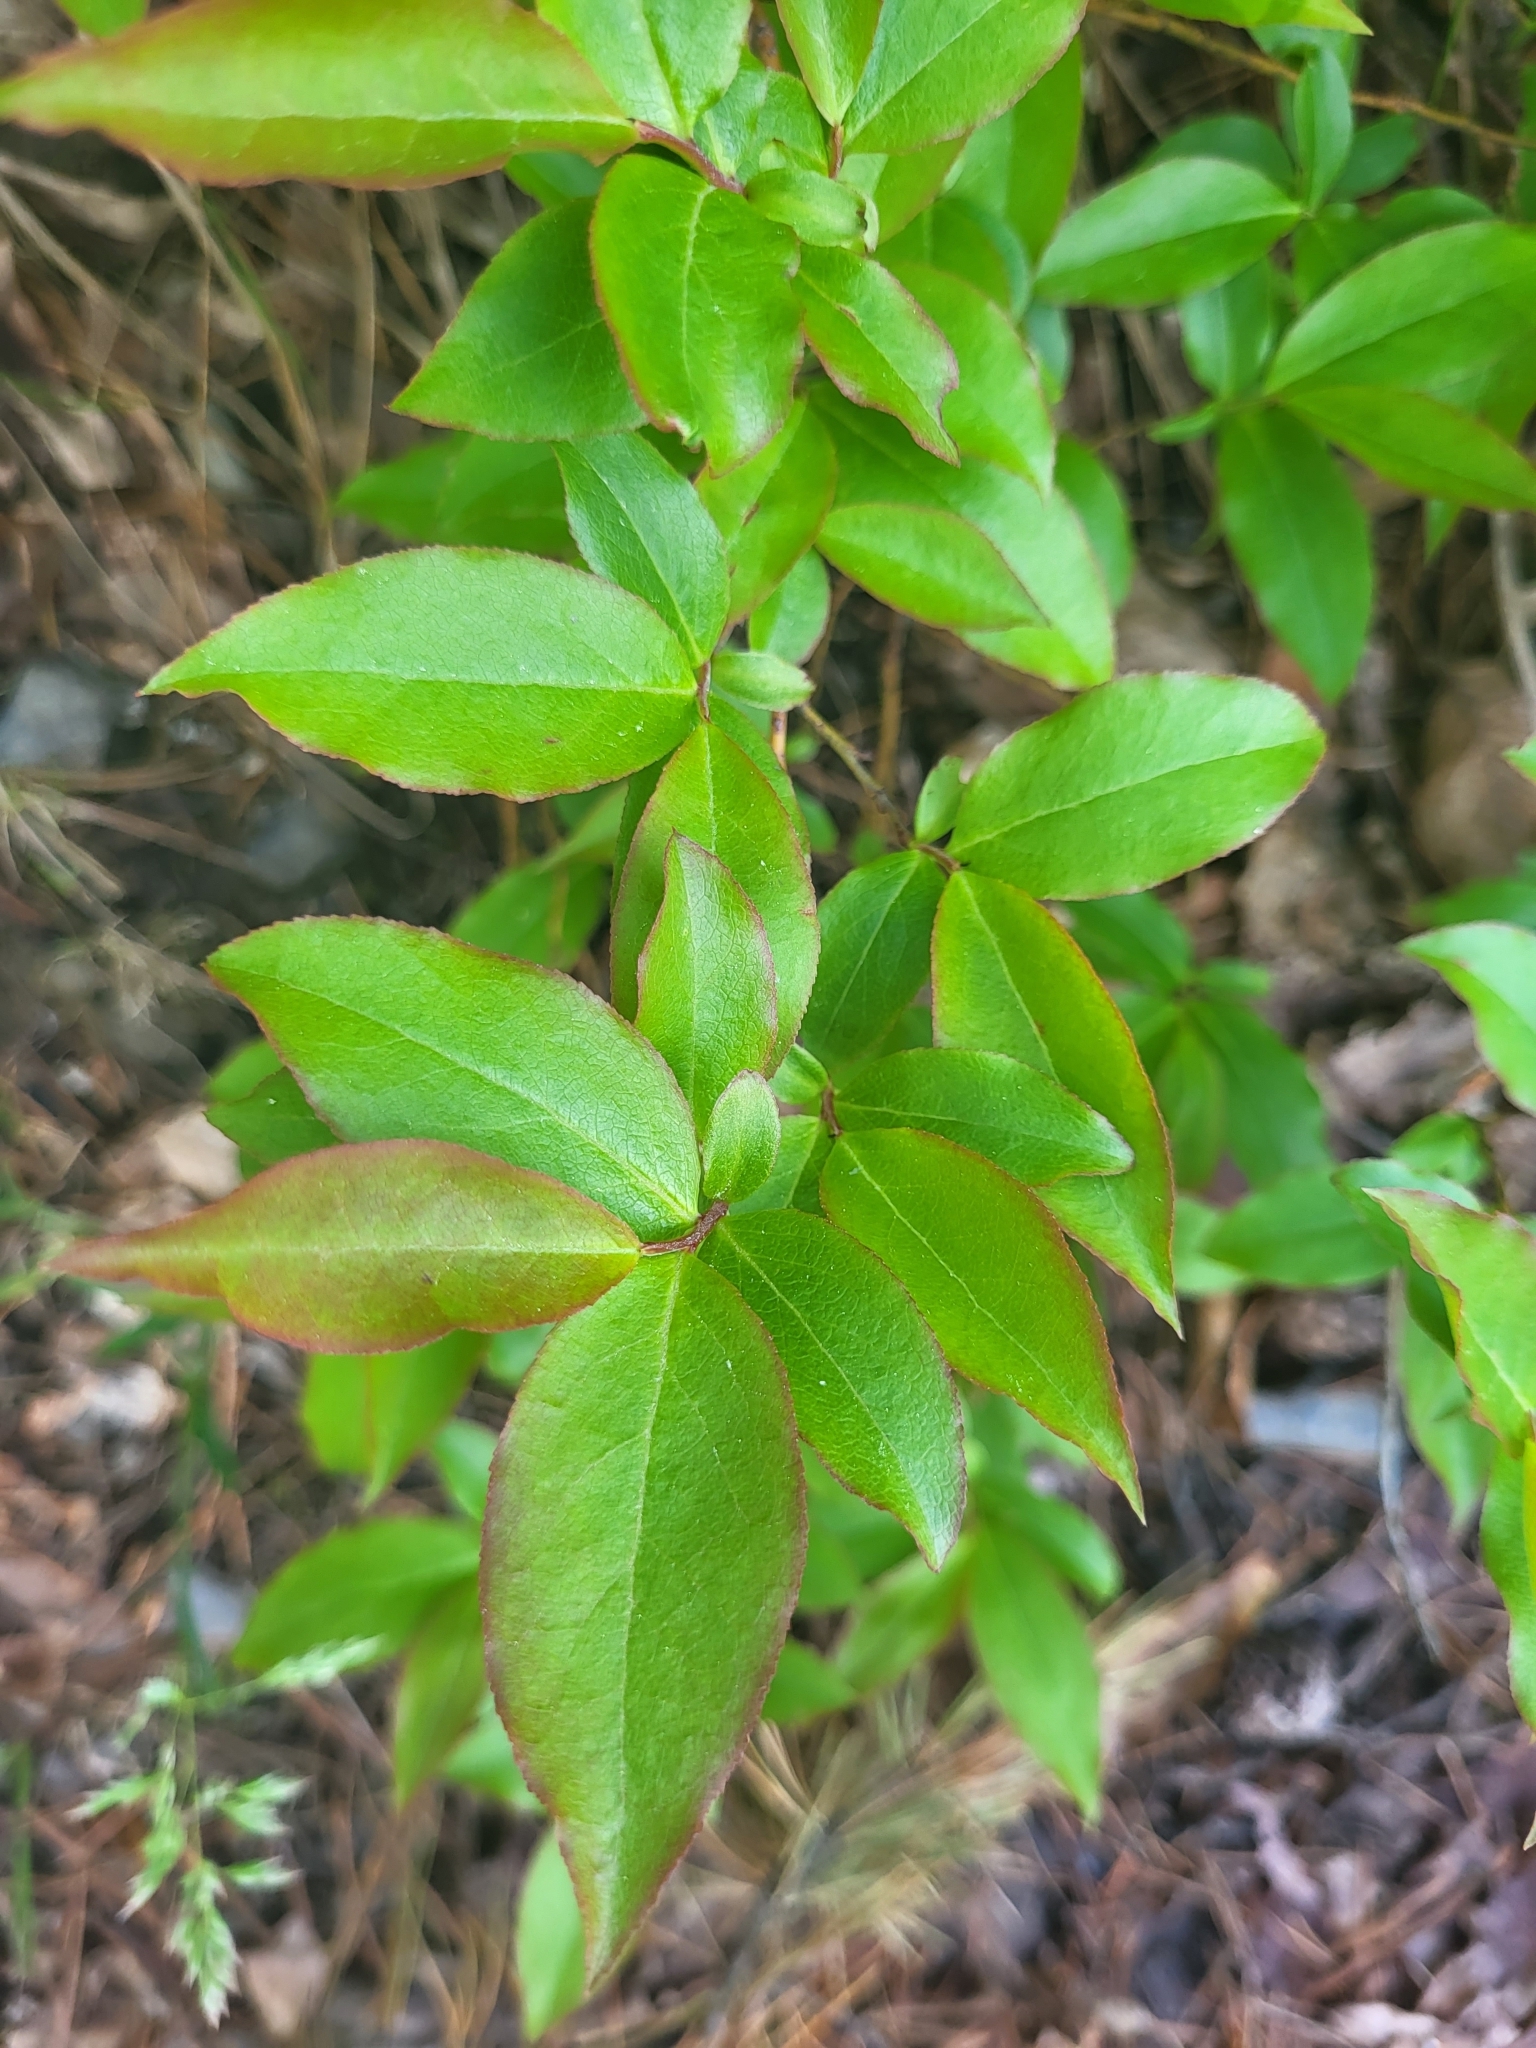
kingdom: Plantae
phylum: Tracheophyta
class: Magnoliopsida
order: Ericales
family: Ericaceae
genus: Vaccinium
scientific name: Vaccinium arctostaphylos
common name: Caucasian whortleberry
